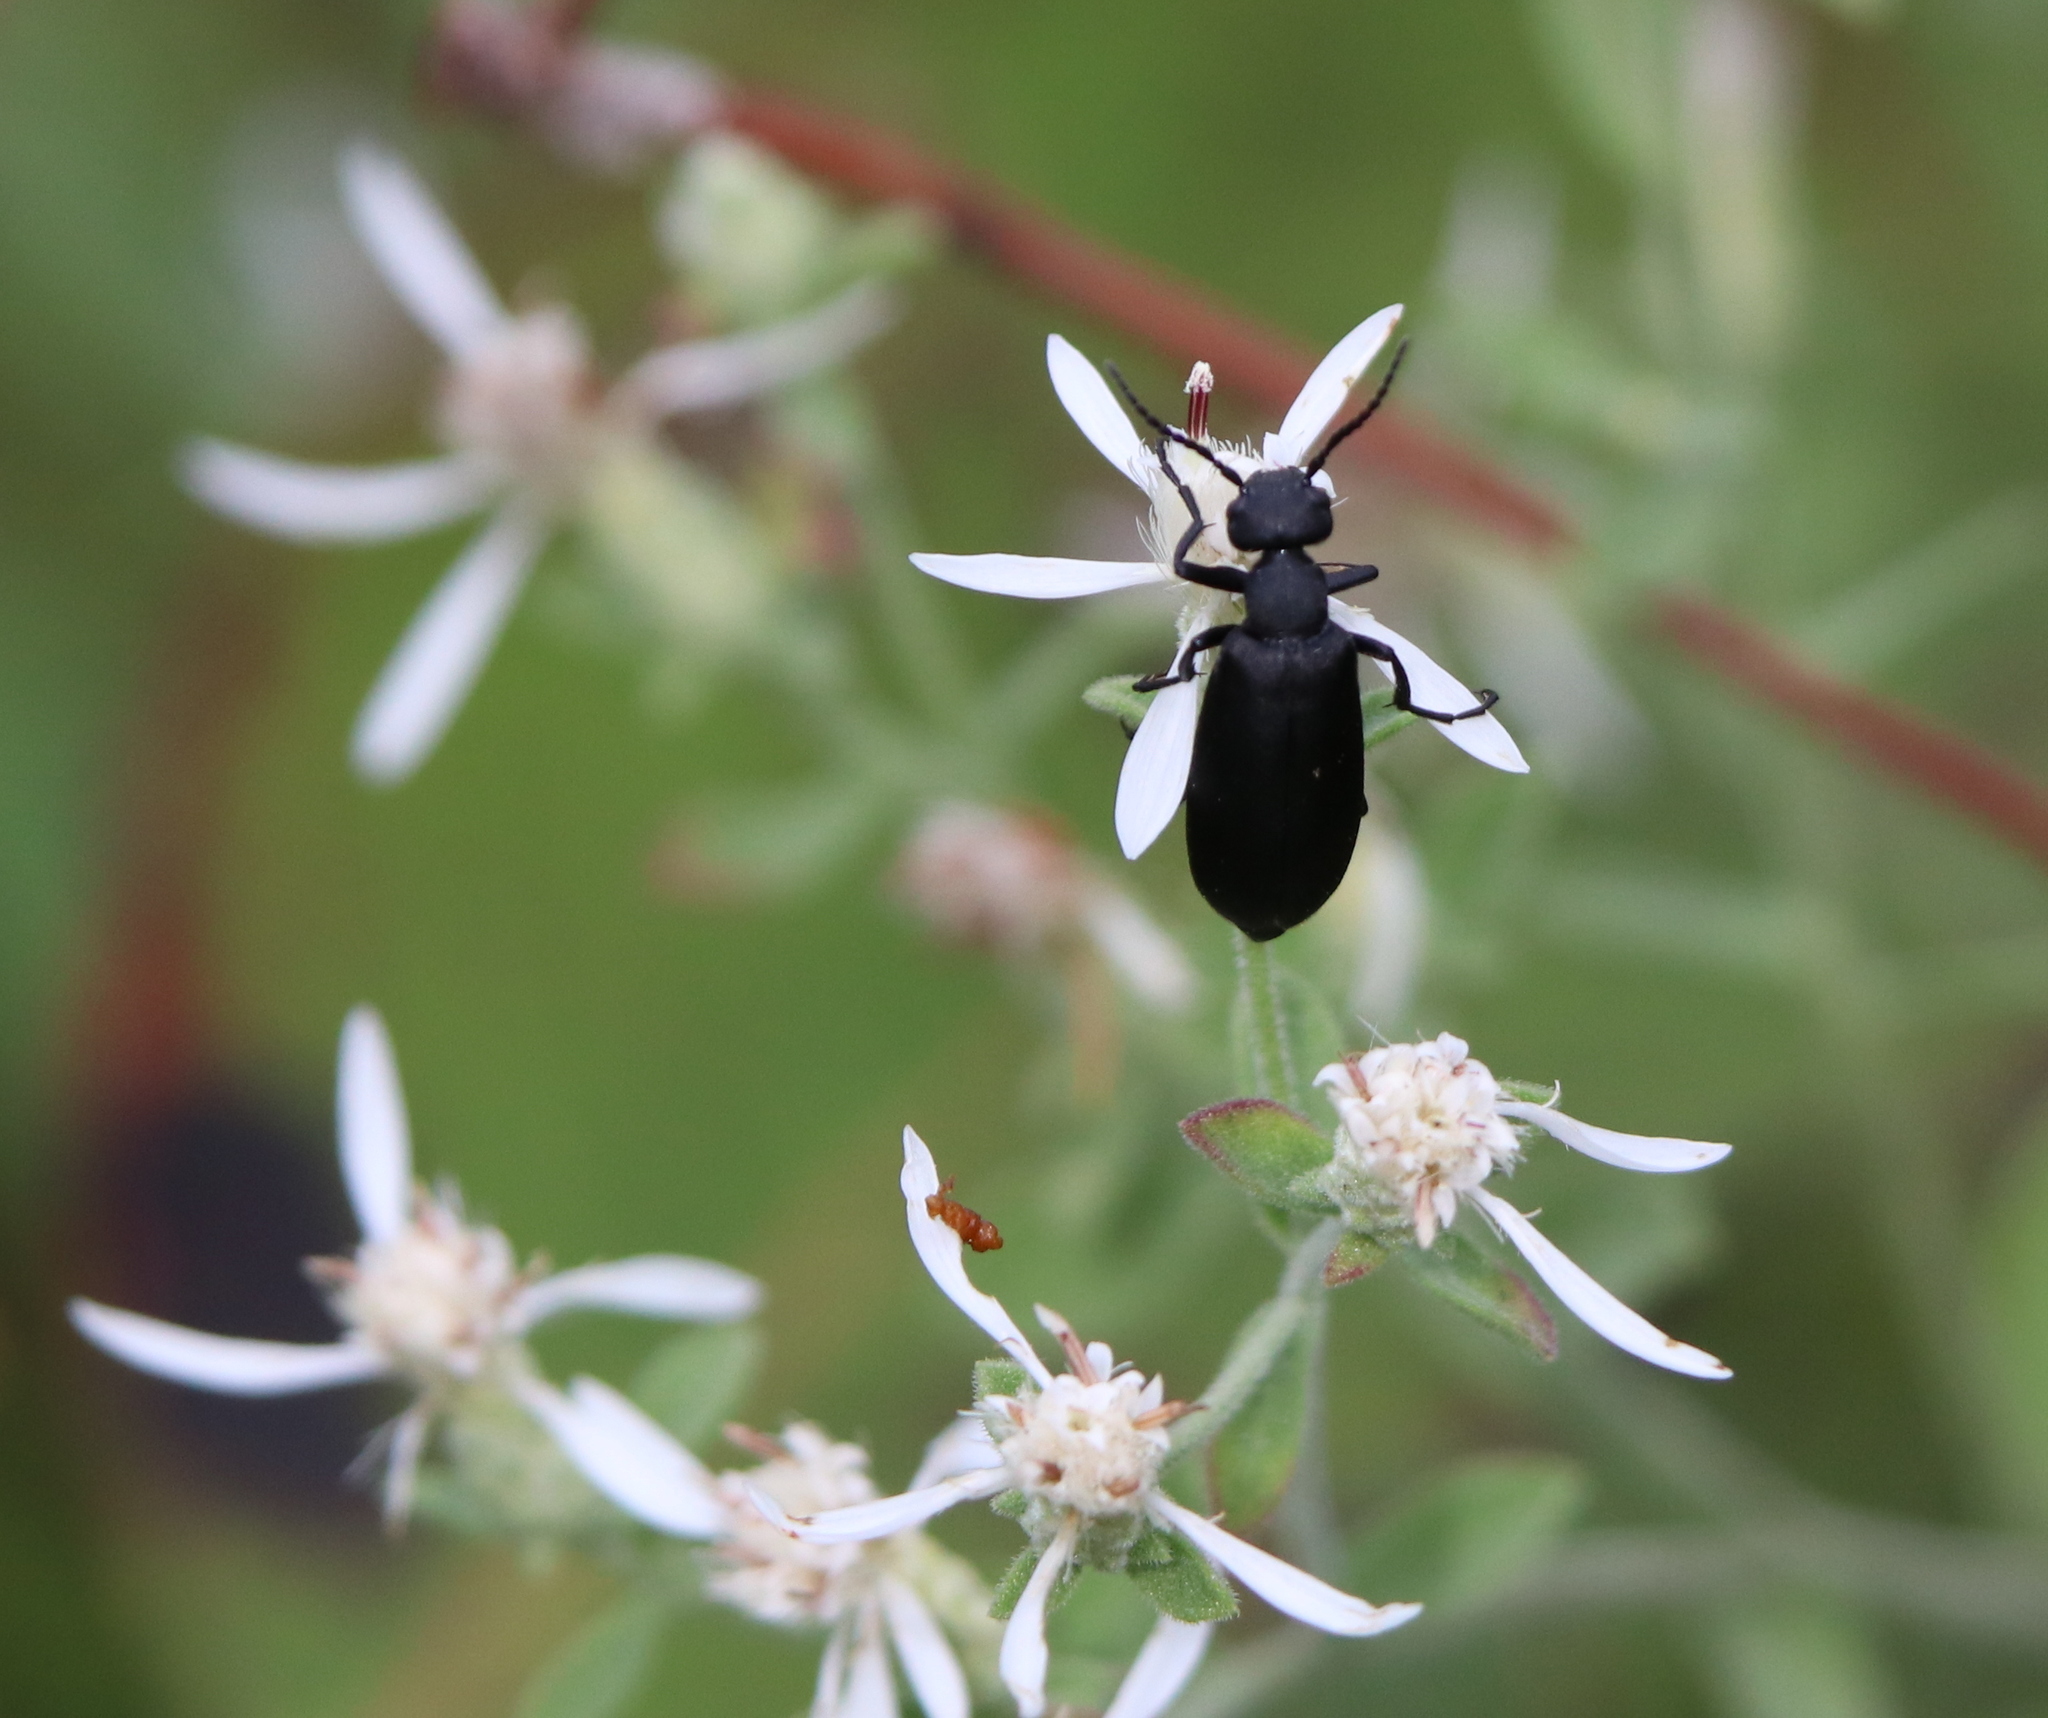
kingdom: Animalia
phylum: Arthropoda
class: Insecta
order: Coleoptera
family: Meloidae
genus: Epicauta
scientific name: Epicauta pensylvanica
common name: Black blister beetle
